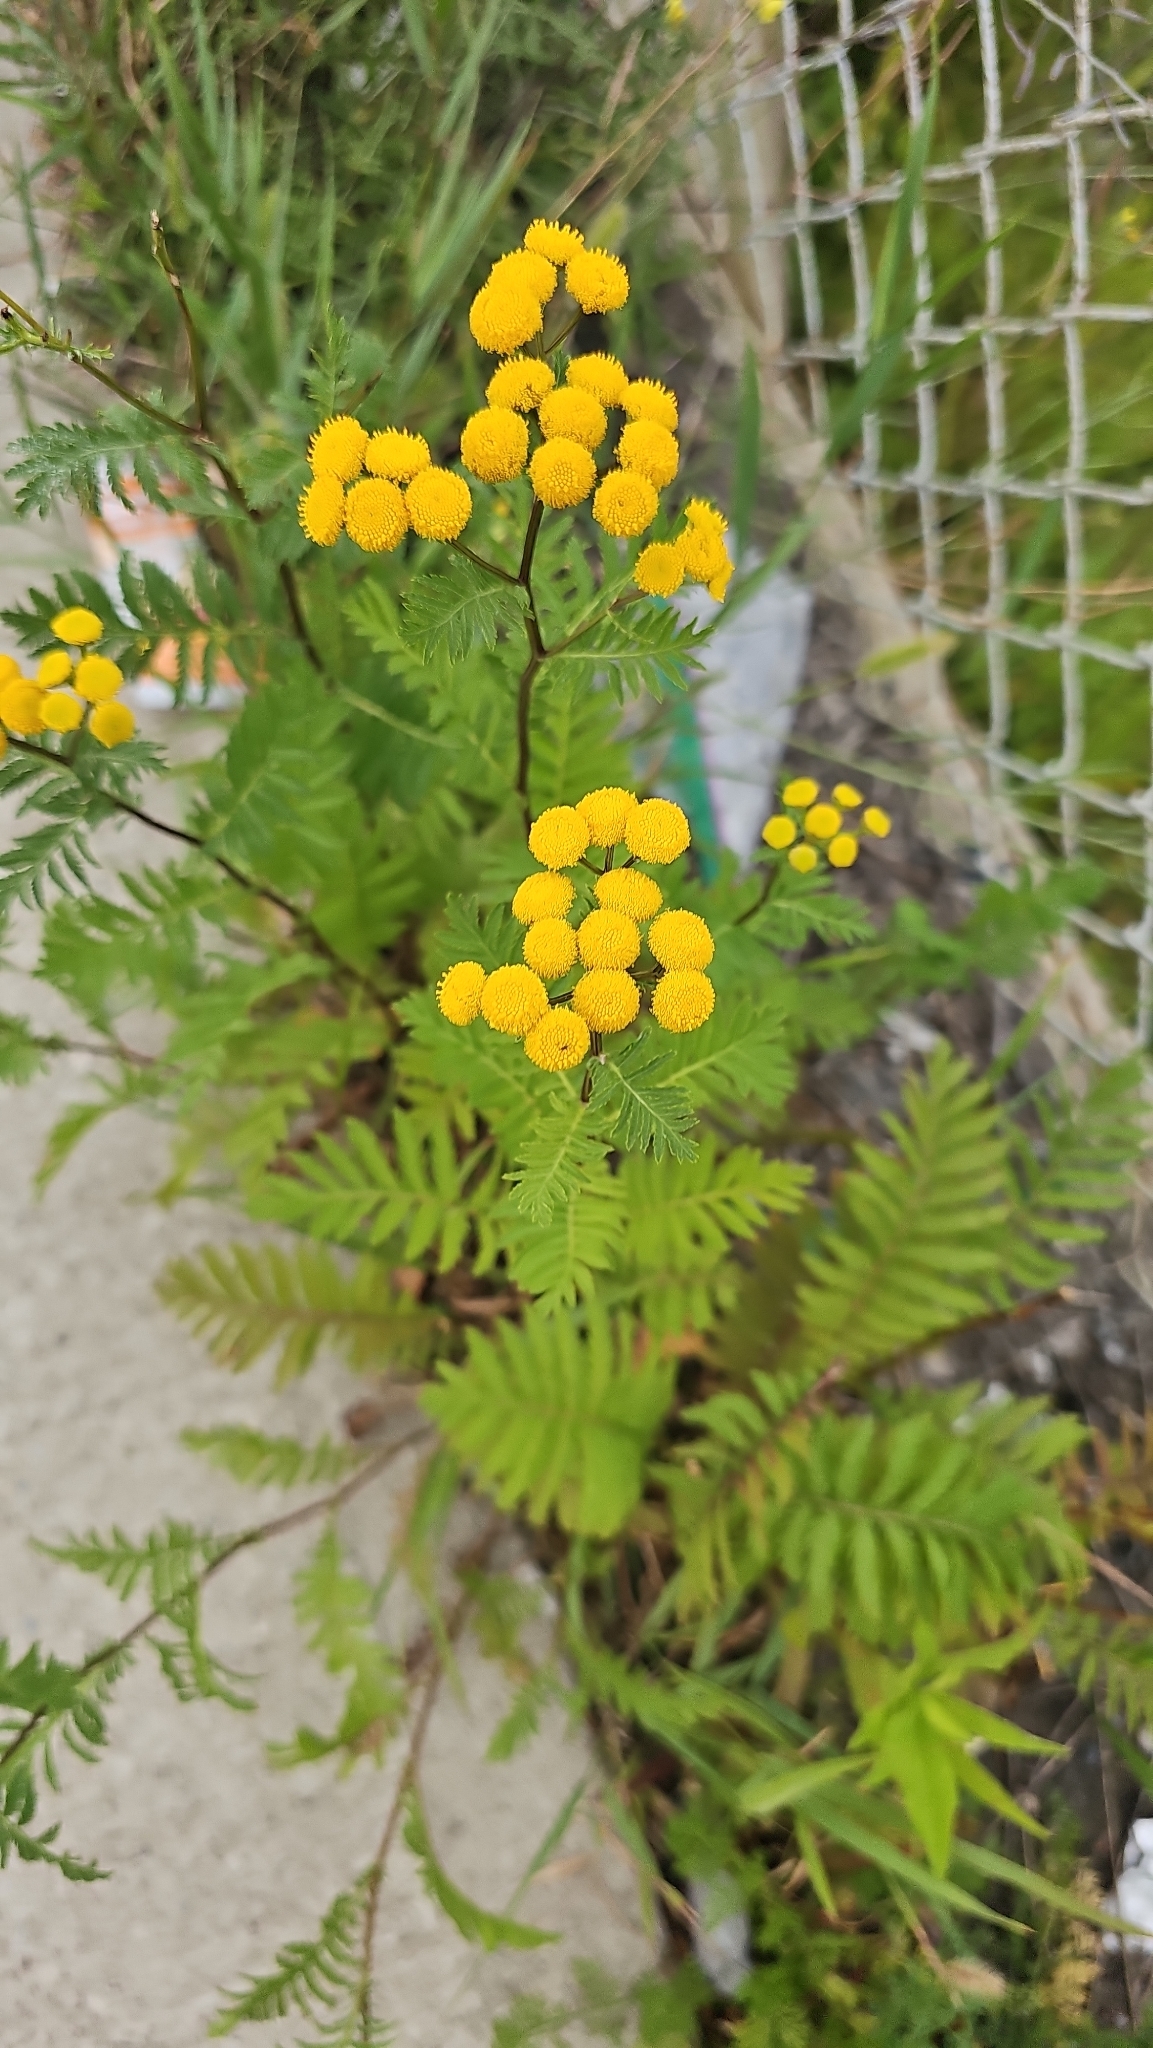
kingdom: Plantae
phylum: Tracheophyta
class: Magnoliopsida
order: Asterales
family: Asteraceae
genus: Tanacetum
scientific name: Tanacetum vulgare
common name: Common tansy
